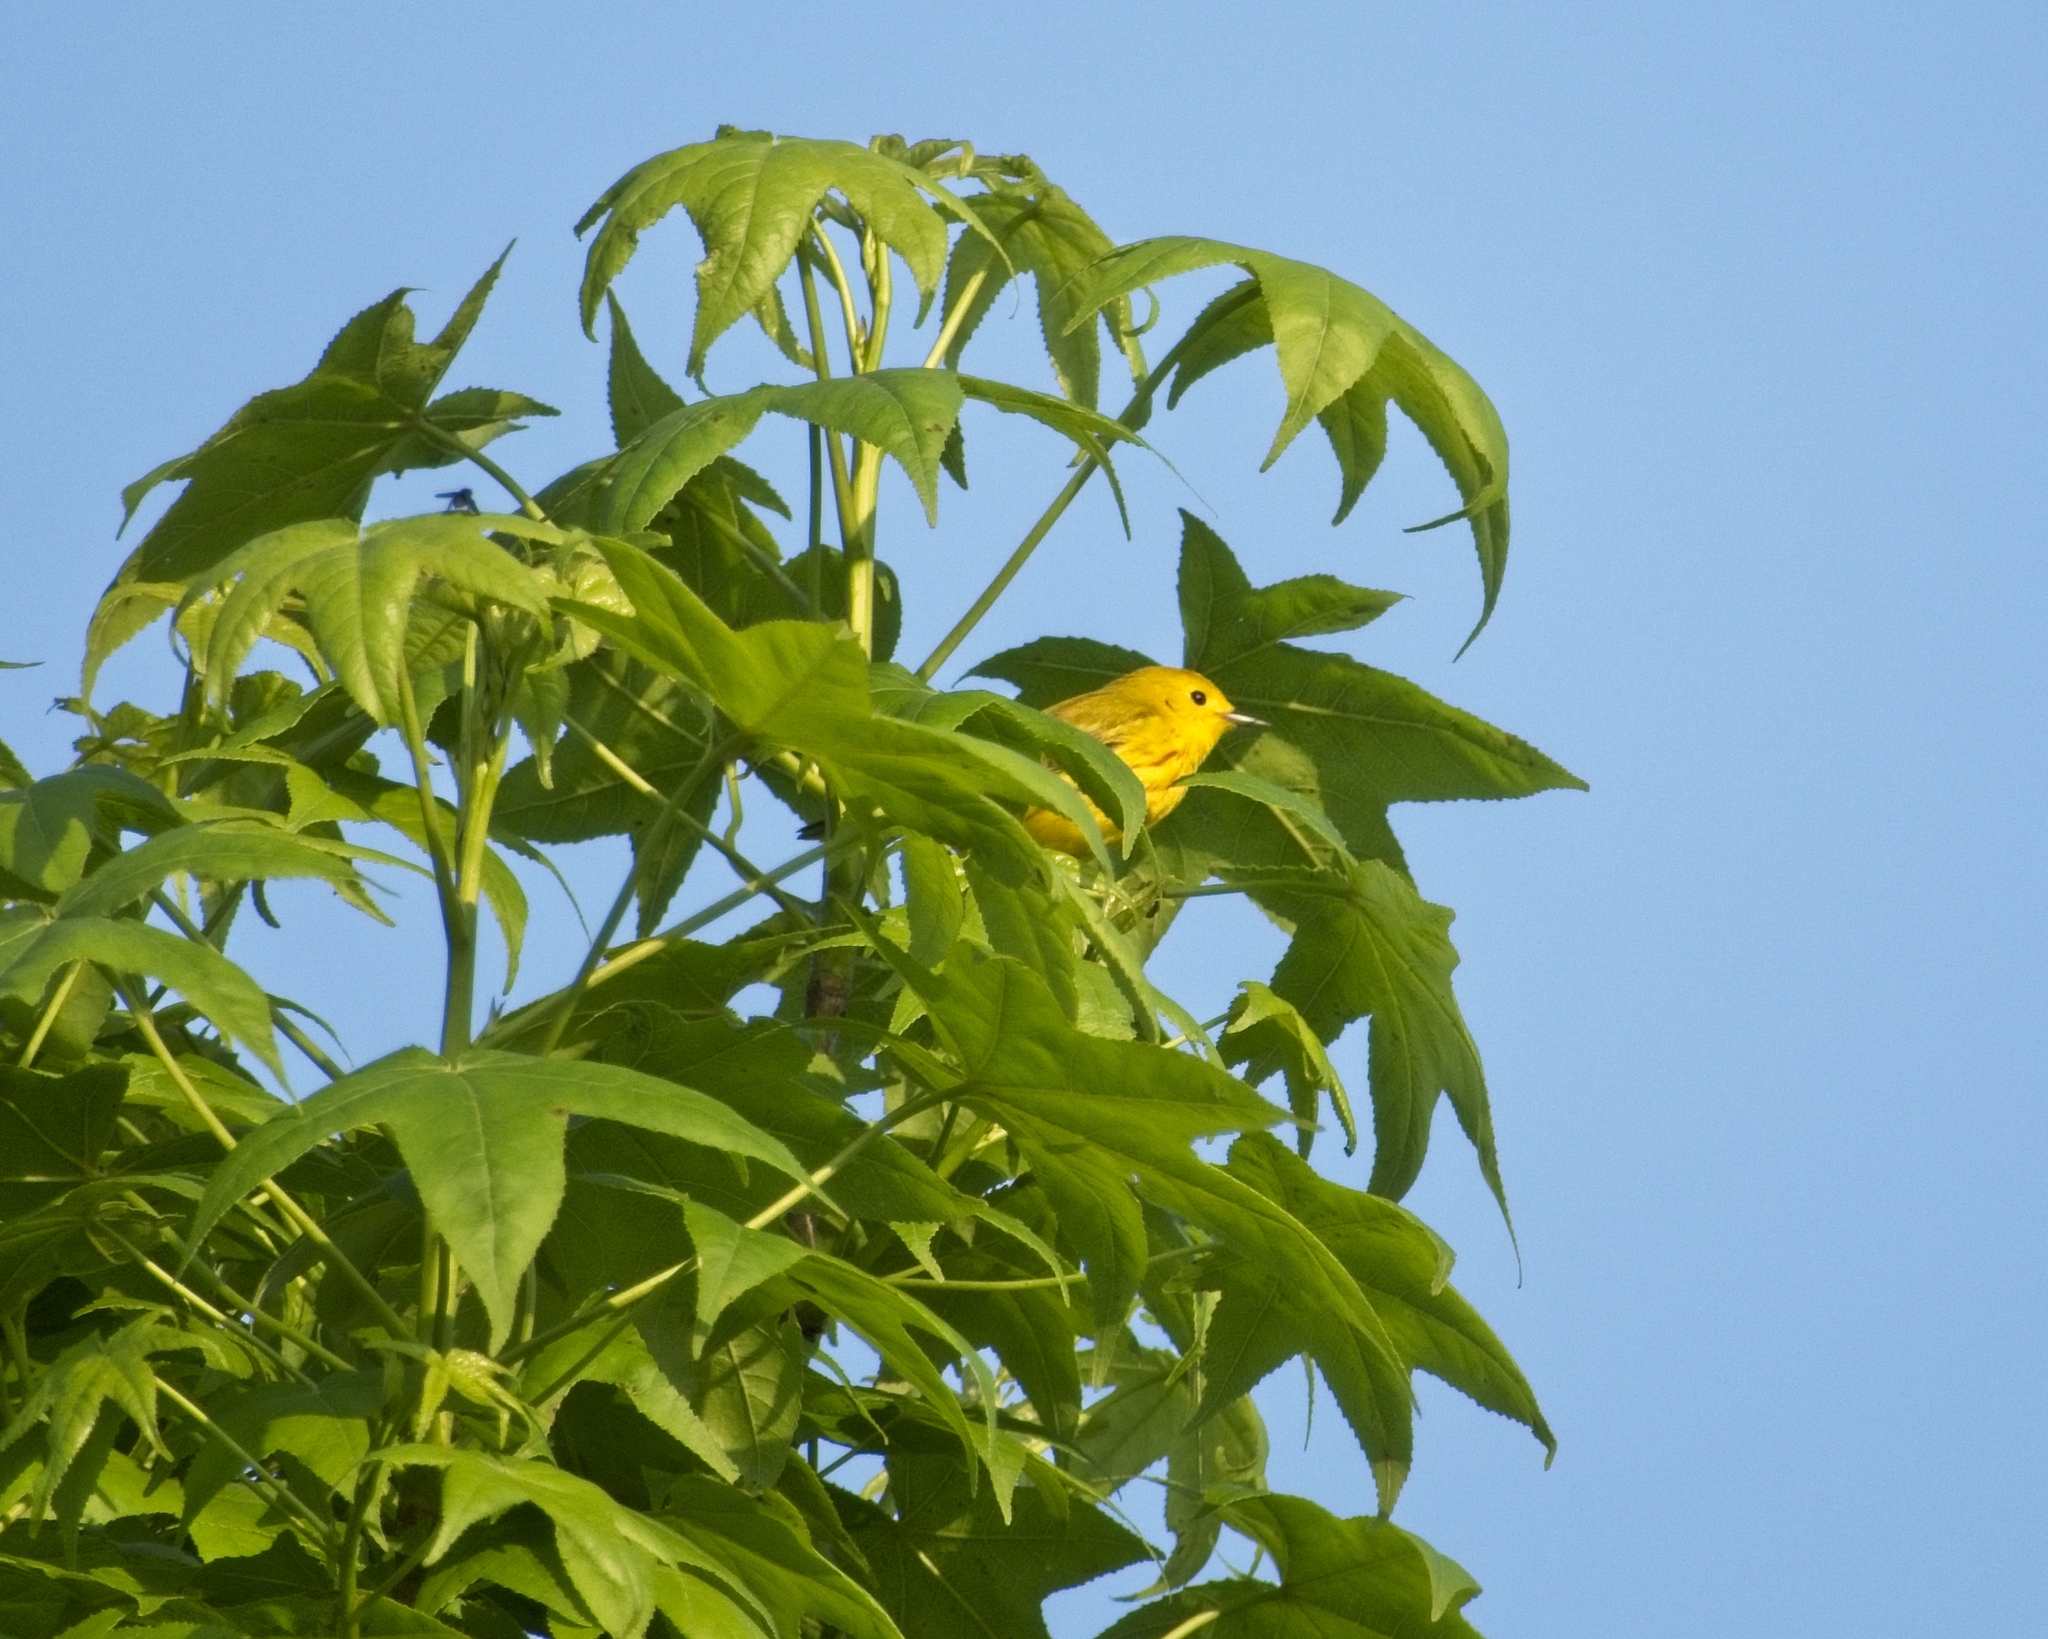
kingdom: Animalia
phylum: Chordata
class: Aves
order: Passeriformes
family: Parulidae
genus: Setophaga
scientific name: Setophaga petechia
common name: Yellow warbler
